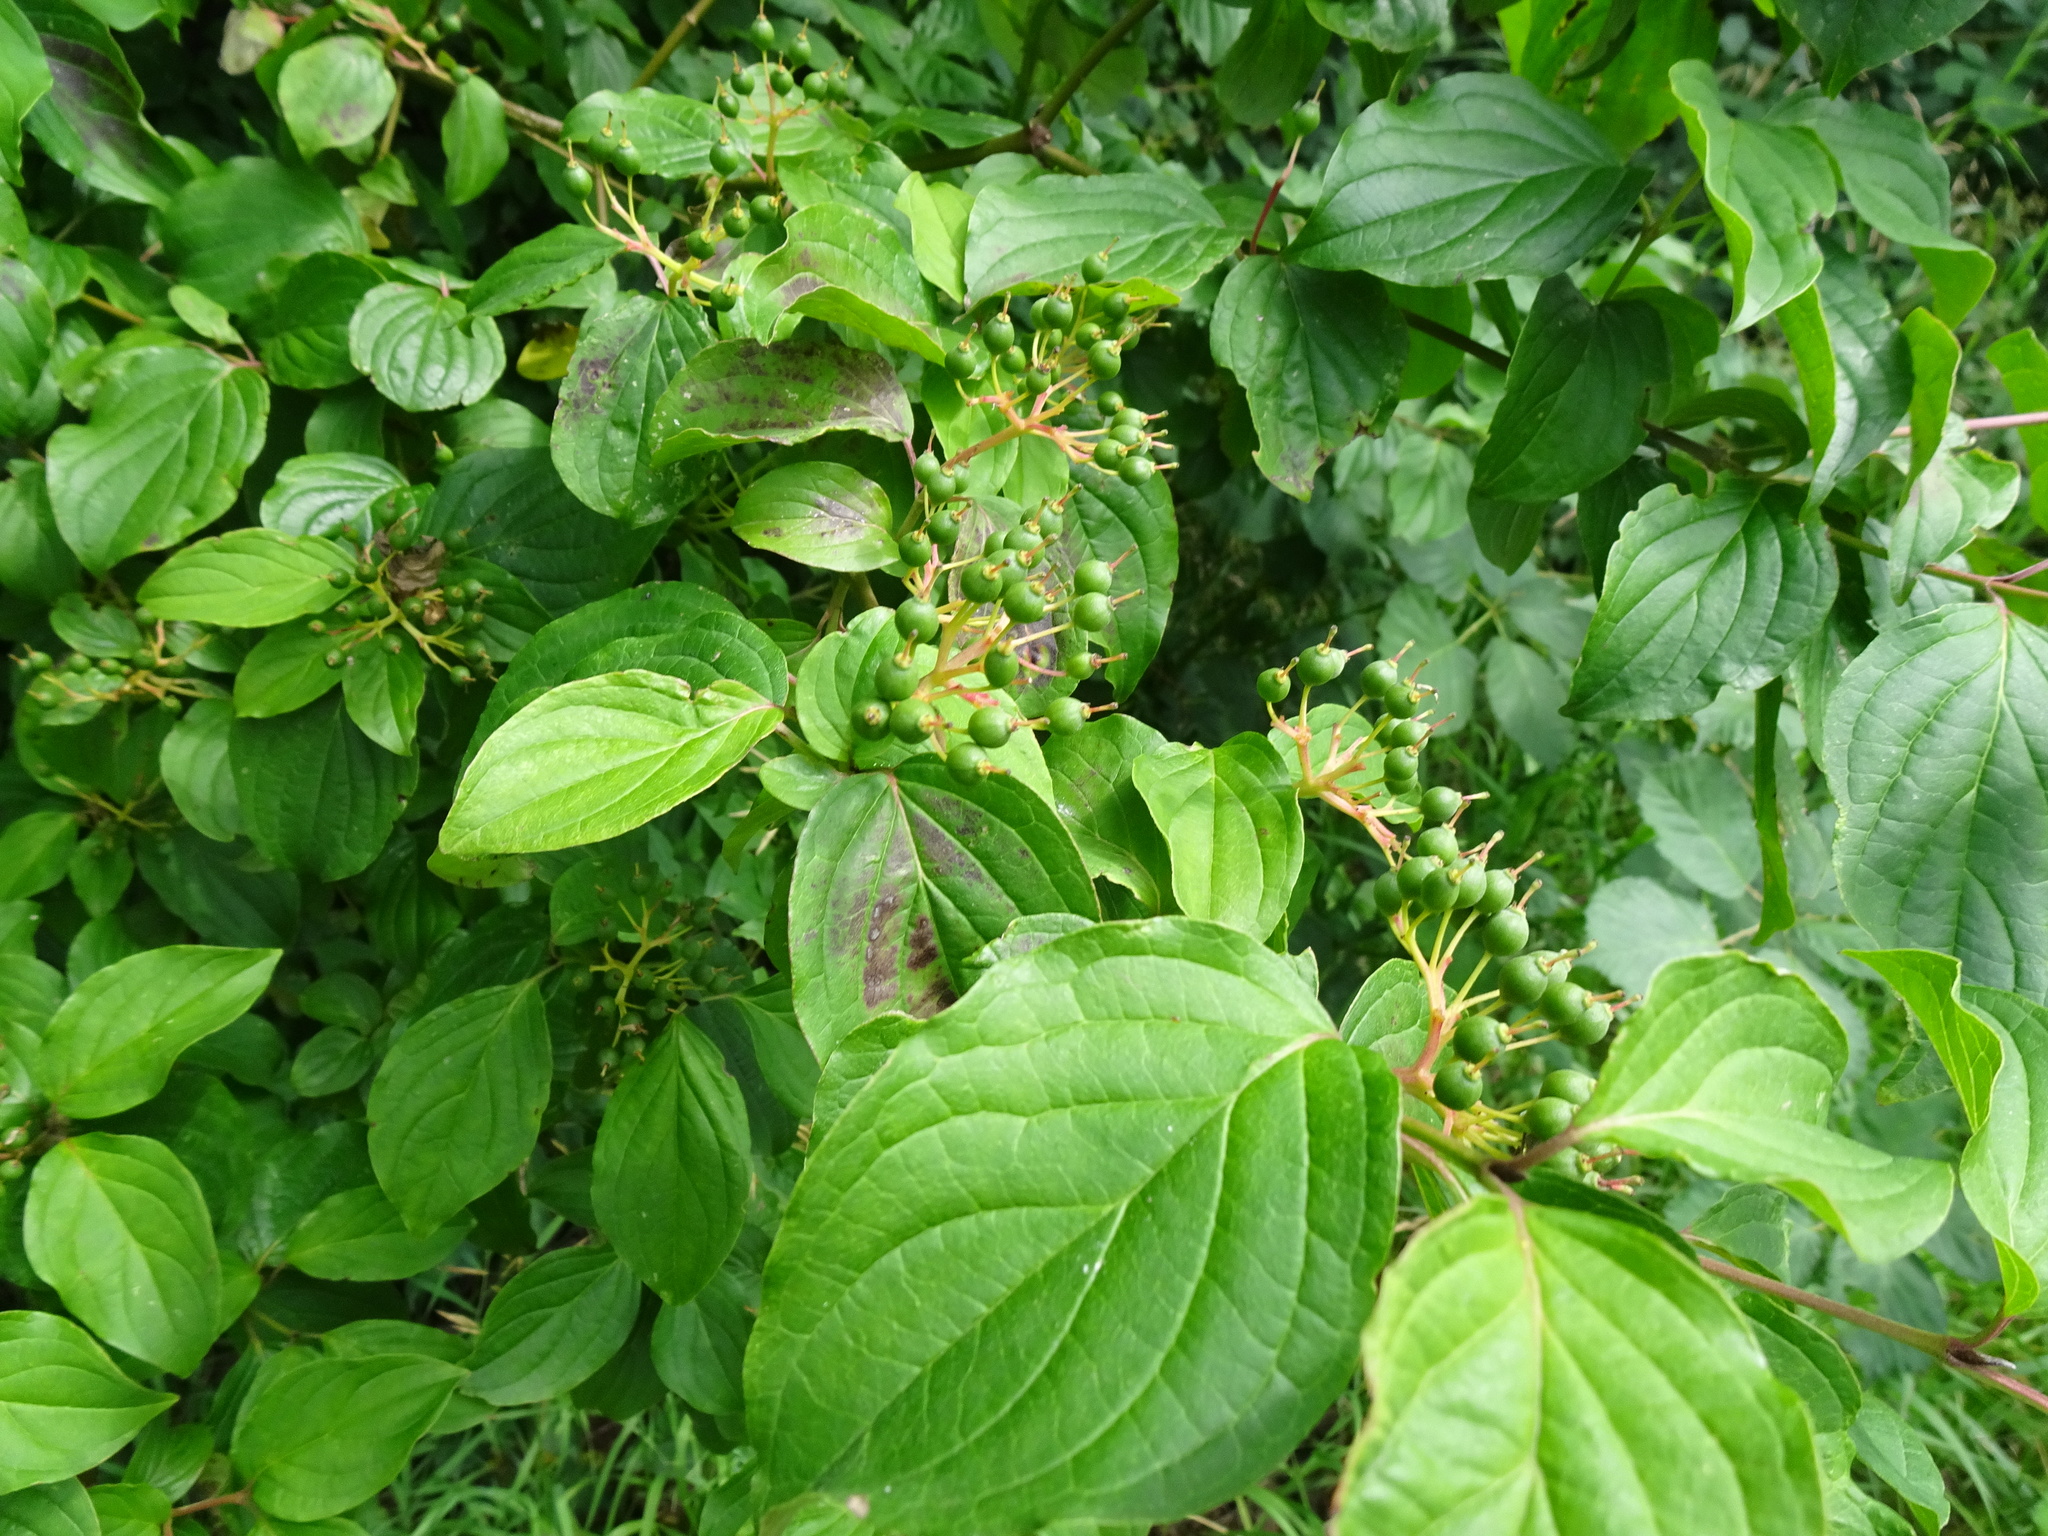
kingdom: Plantae
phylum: Tracheophyta
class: Magnoliopsida
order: Cornales
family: Cornaceae
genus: Cornus
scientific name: Cornus sanguinea
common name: Dogwood
